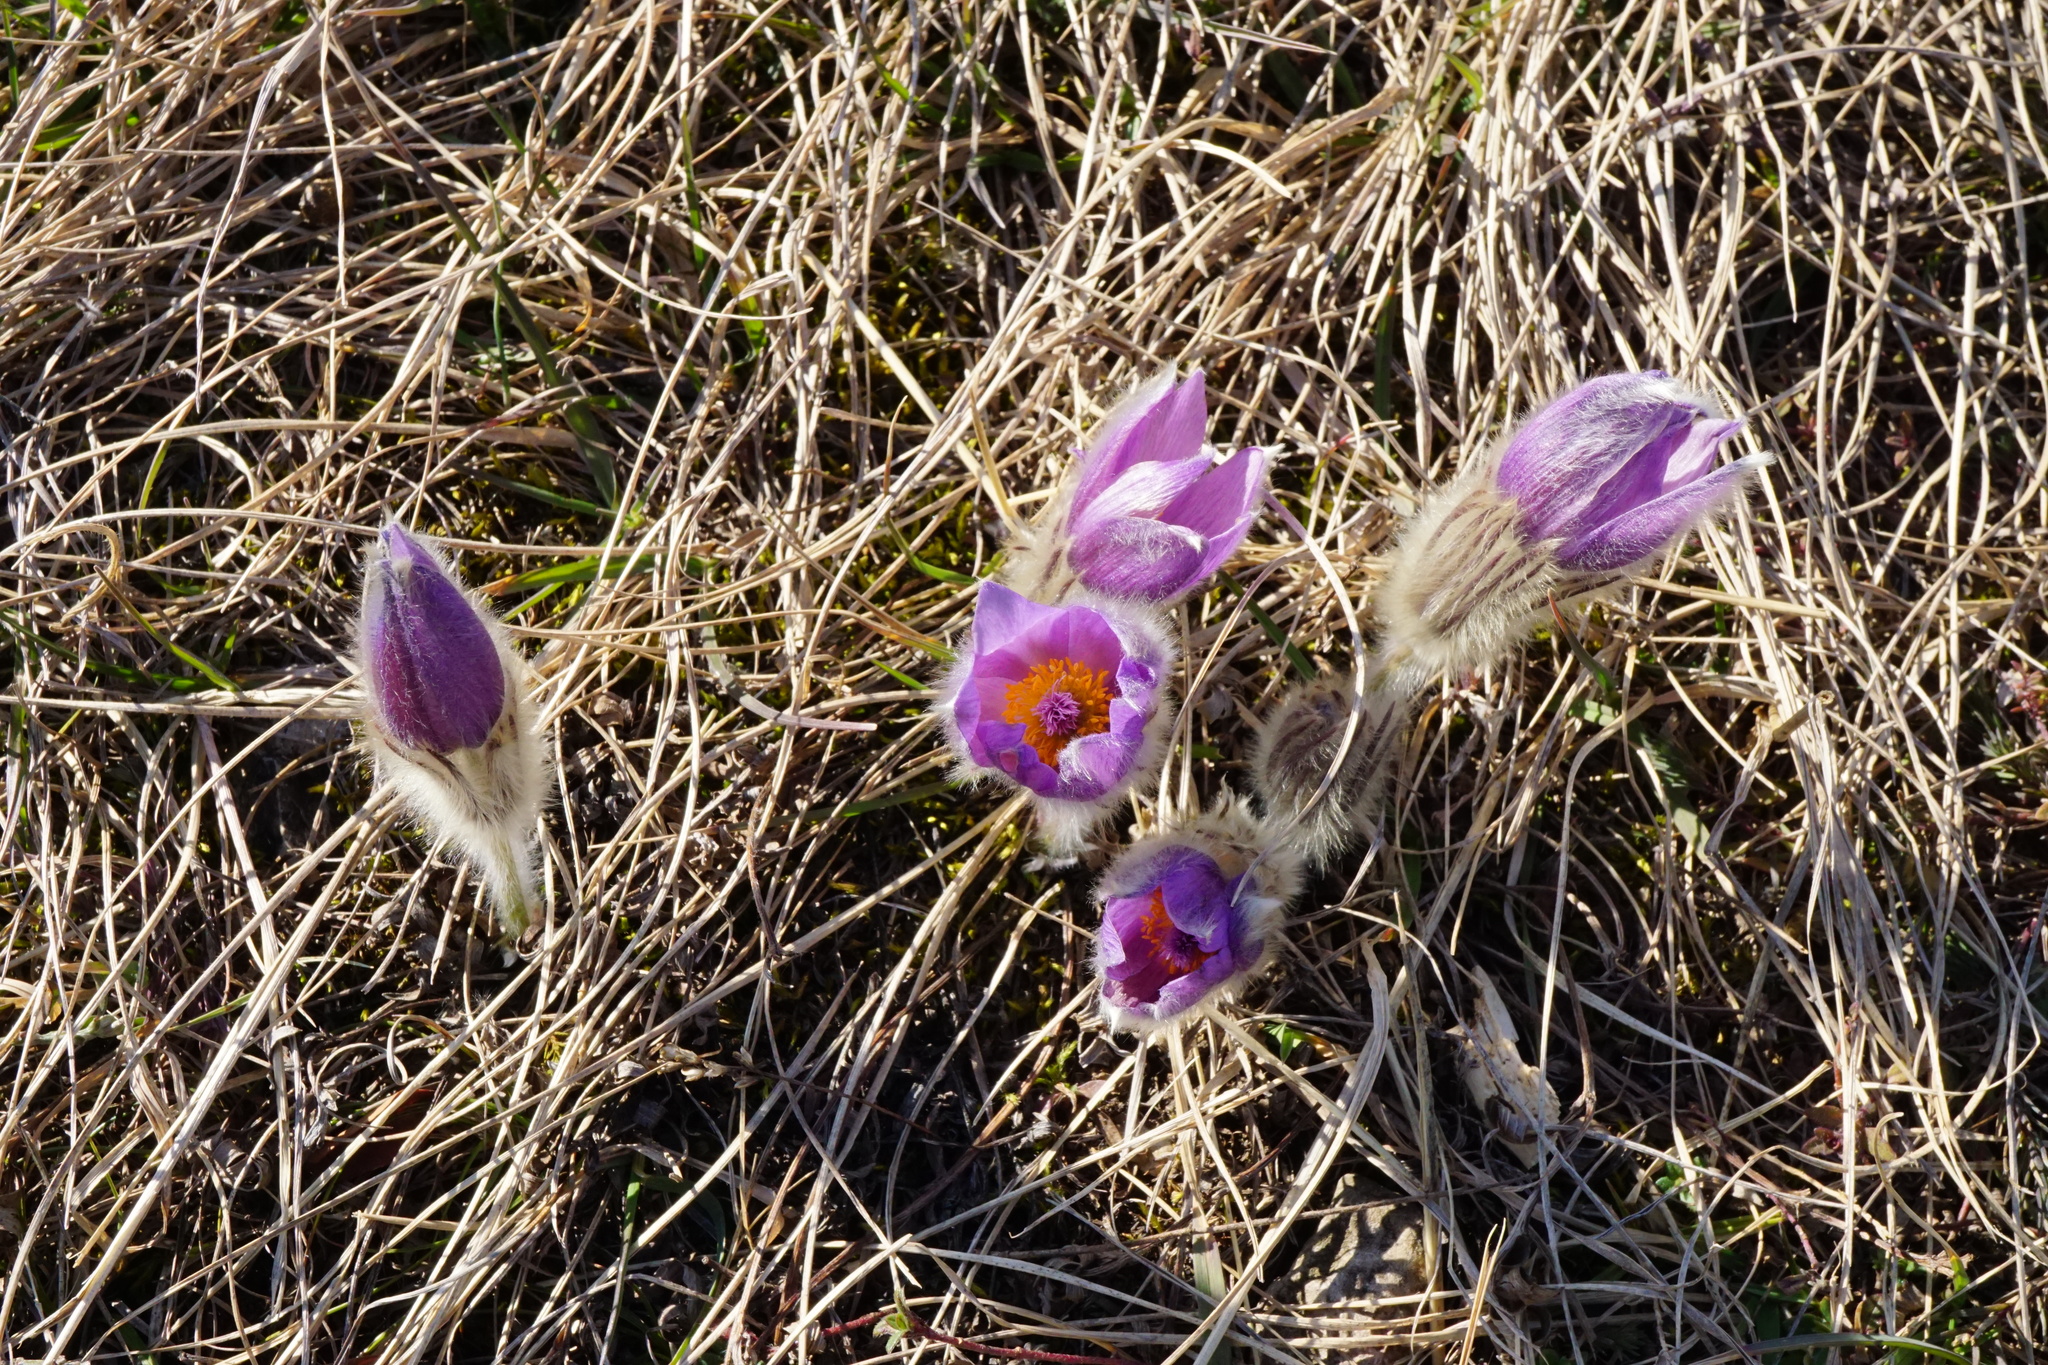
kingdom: Plantae
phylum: Tracheophyta
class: Magnoliopsida
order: Ranunculales
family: Ranunculaceae
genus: Pulsatilla
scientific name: Pulsatilla grandis
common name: Greater pasque flower
